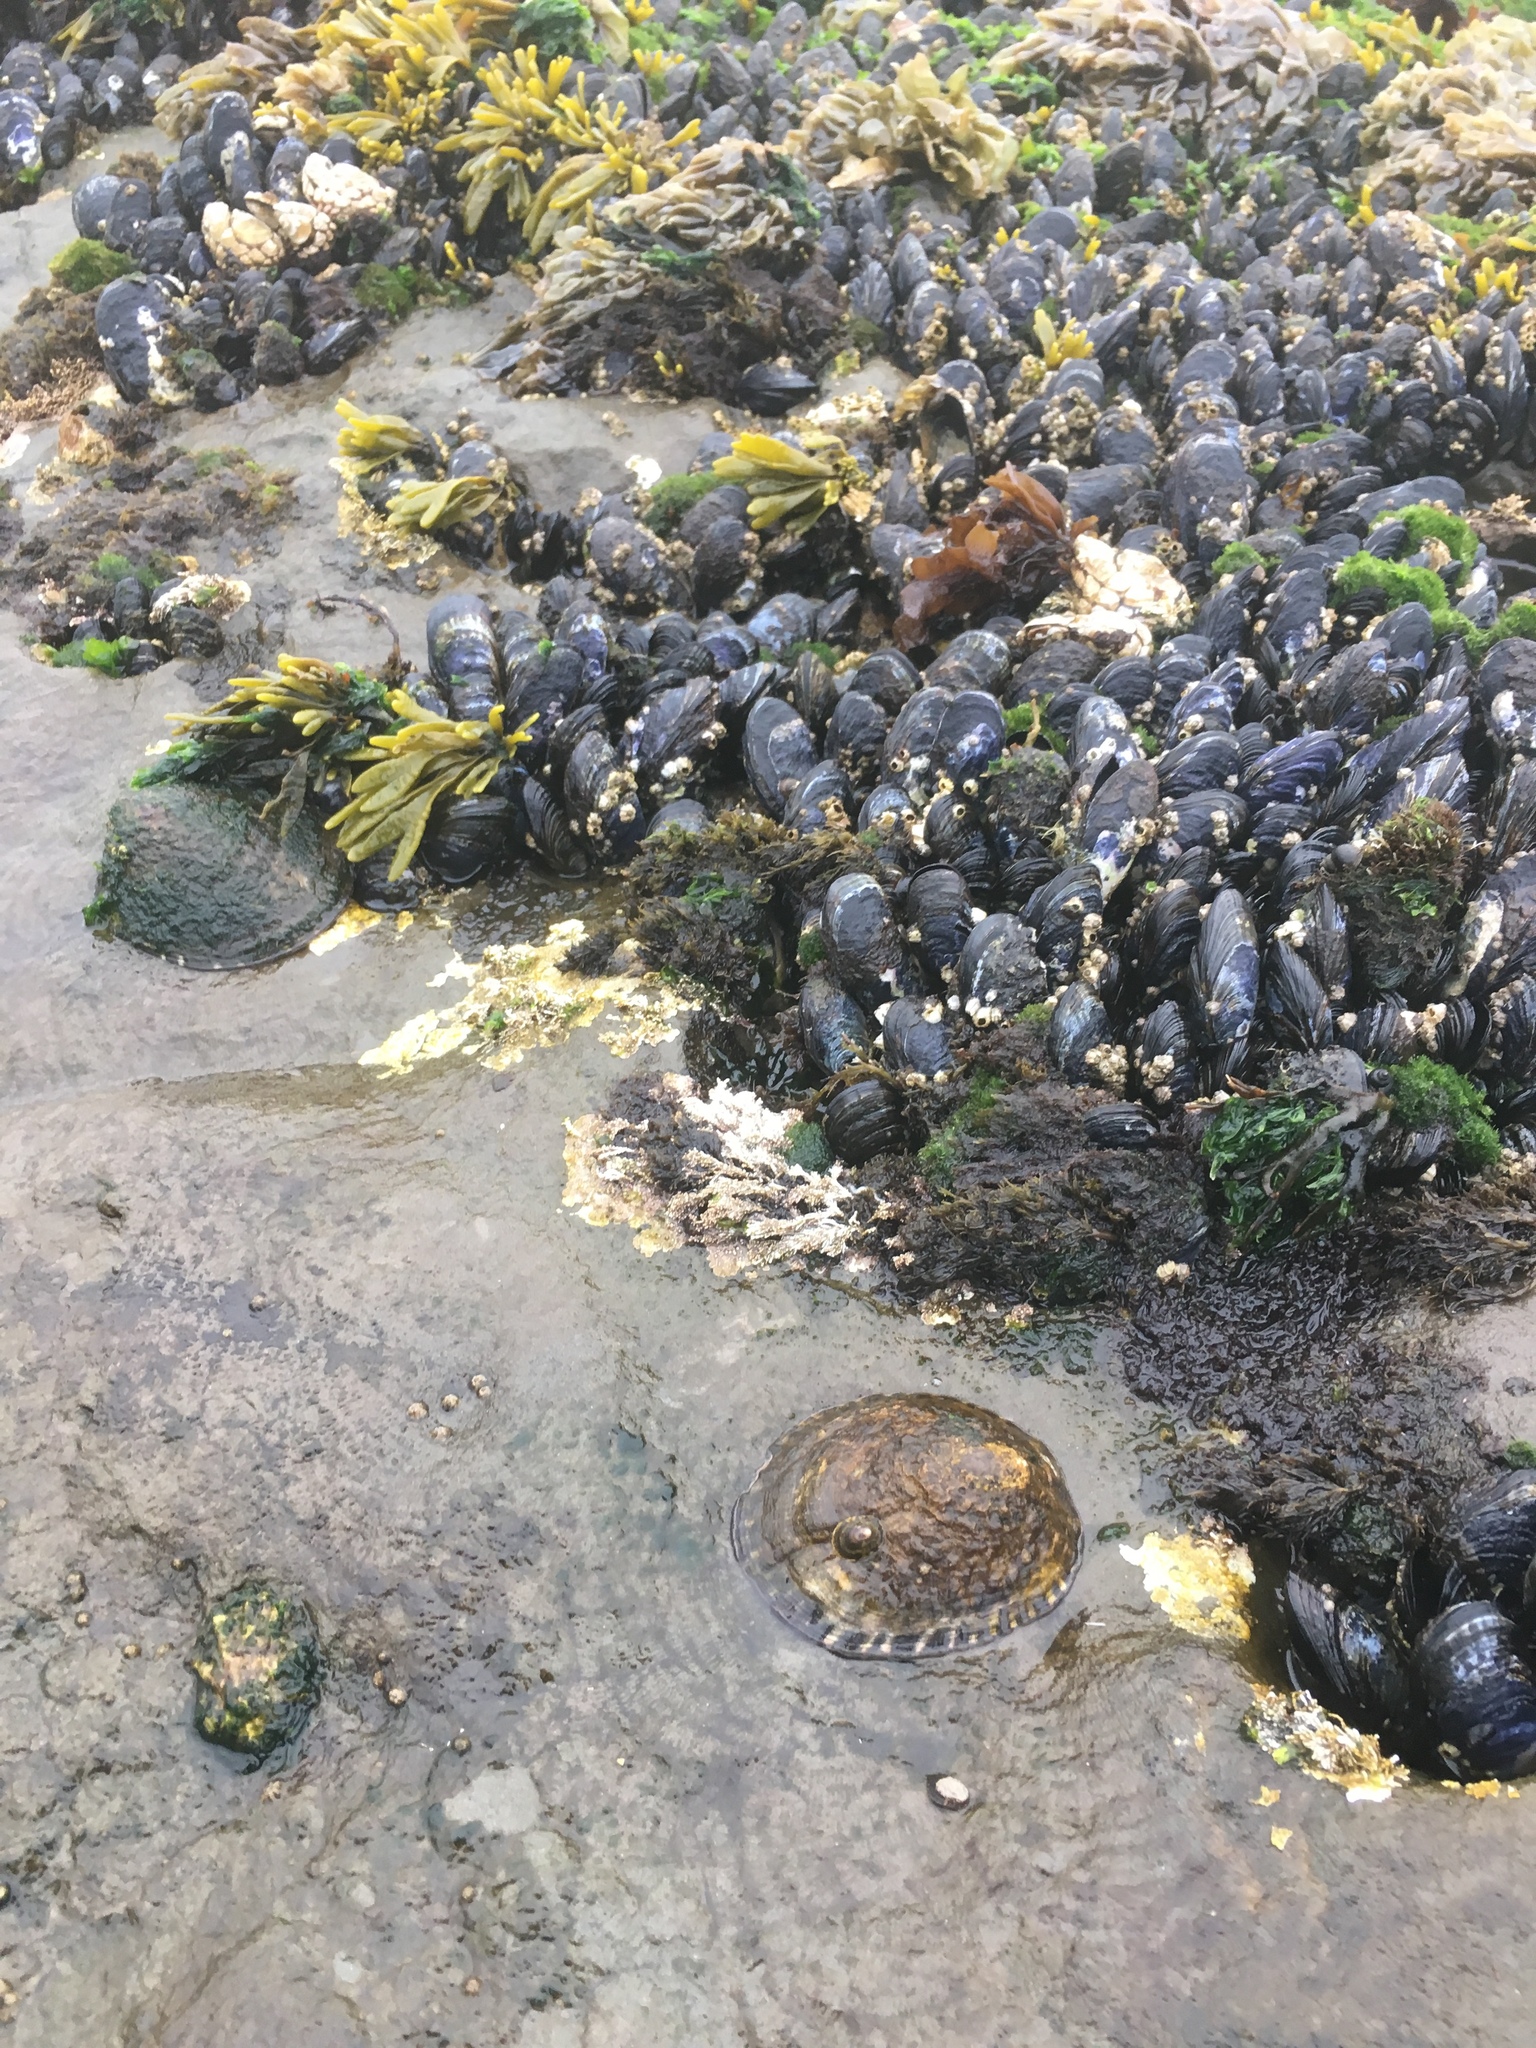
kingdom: Animalia
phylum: Mollusca
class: Gastropoda
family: Lottiidae
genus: Lottia
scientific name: Lottia gigantea
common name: Owl limpet
